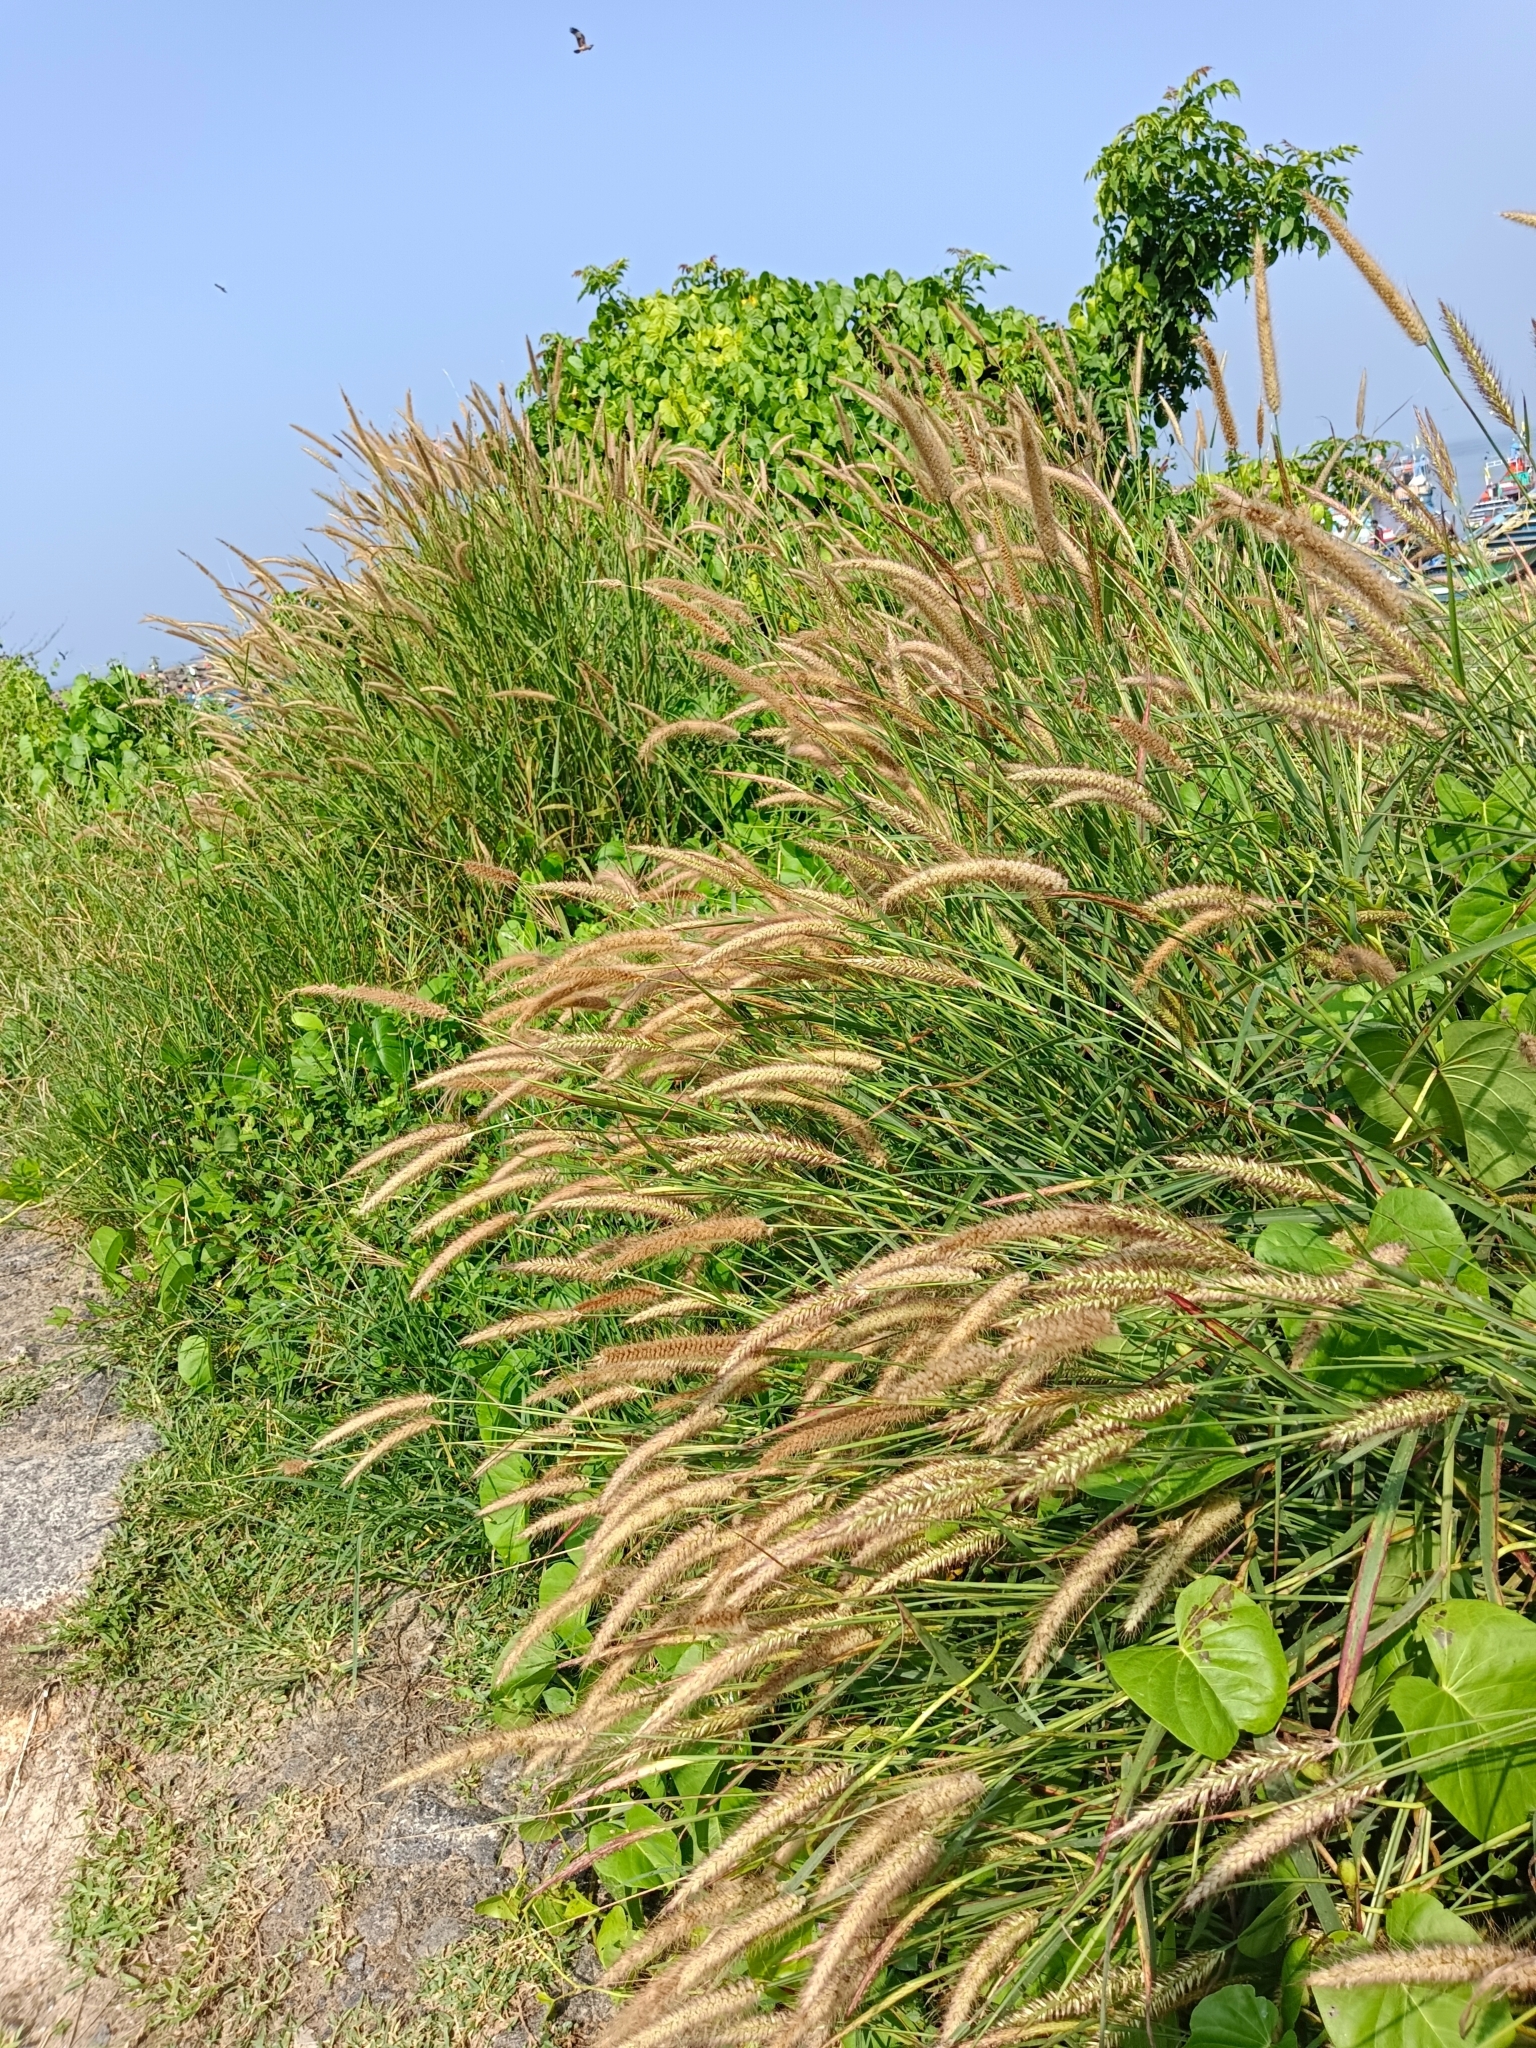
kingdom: Plantae
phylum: Tracheophyta
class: Liliopsida
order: Poales
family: Poaceae
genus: Cenchrus
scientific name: Cenchrus setosus
